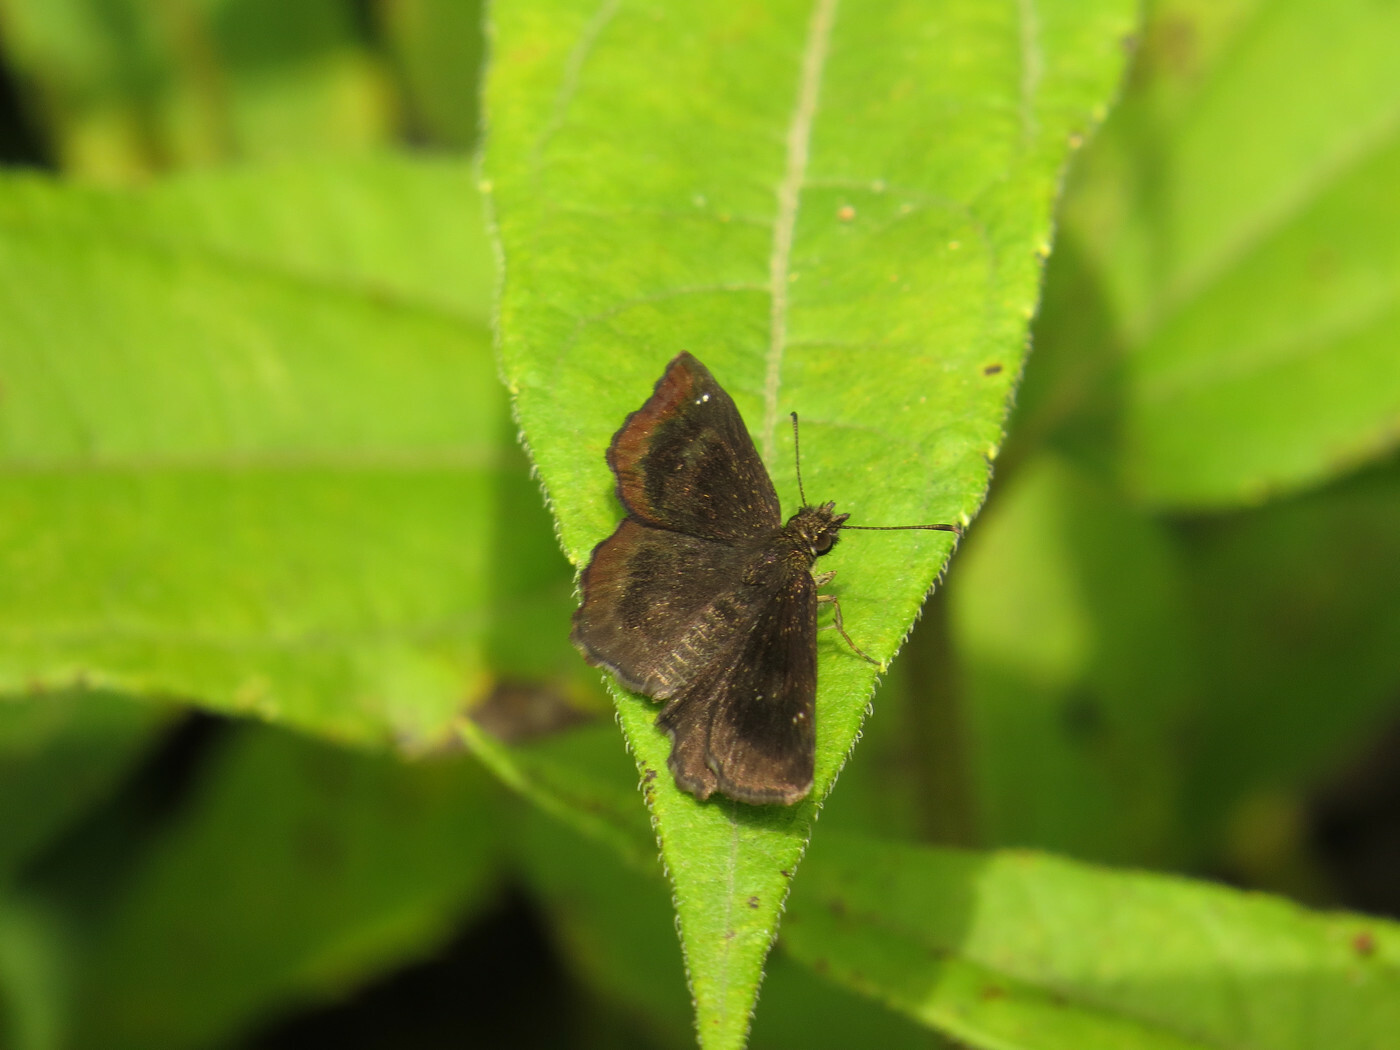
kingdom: Animalia
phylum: Arthropoda
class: Insecta
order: Lepidoptera
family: Hesperiidae
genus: Staphylus
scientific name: Staphylus mazans
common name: Mazans scallopwing
